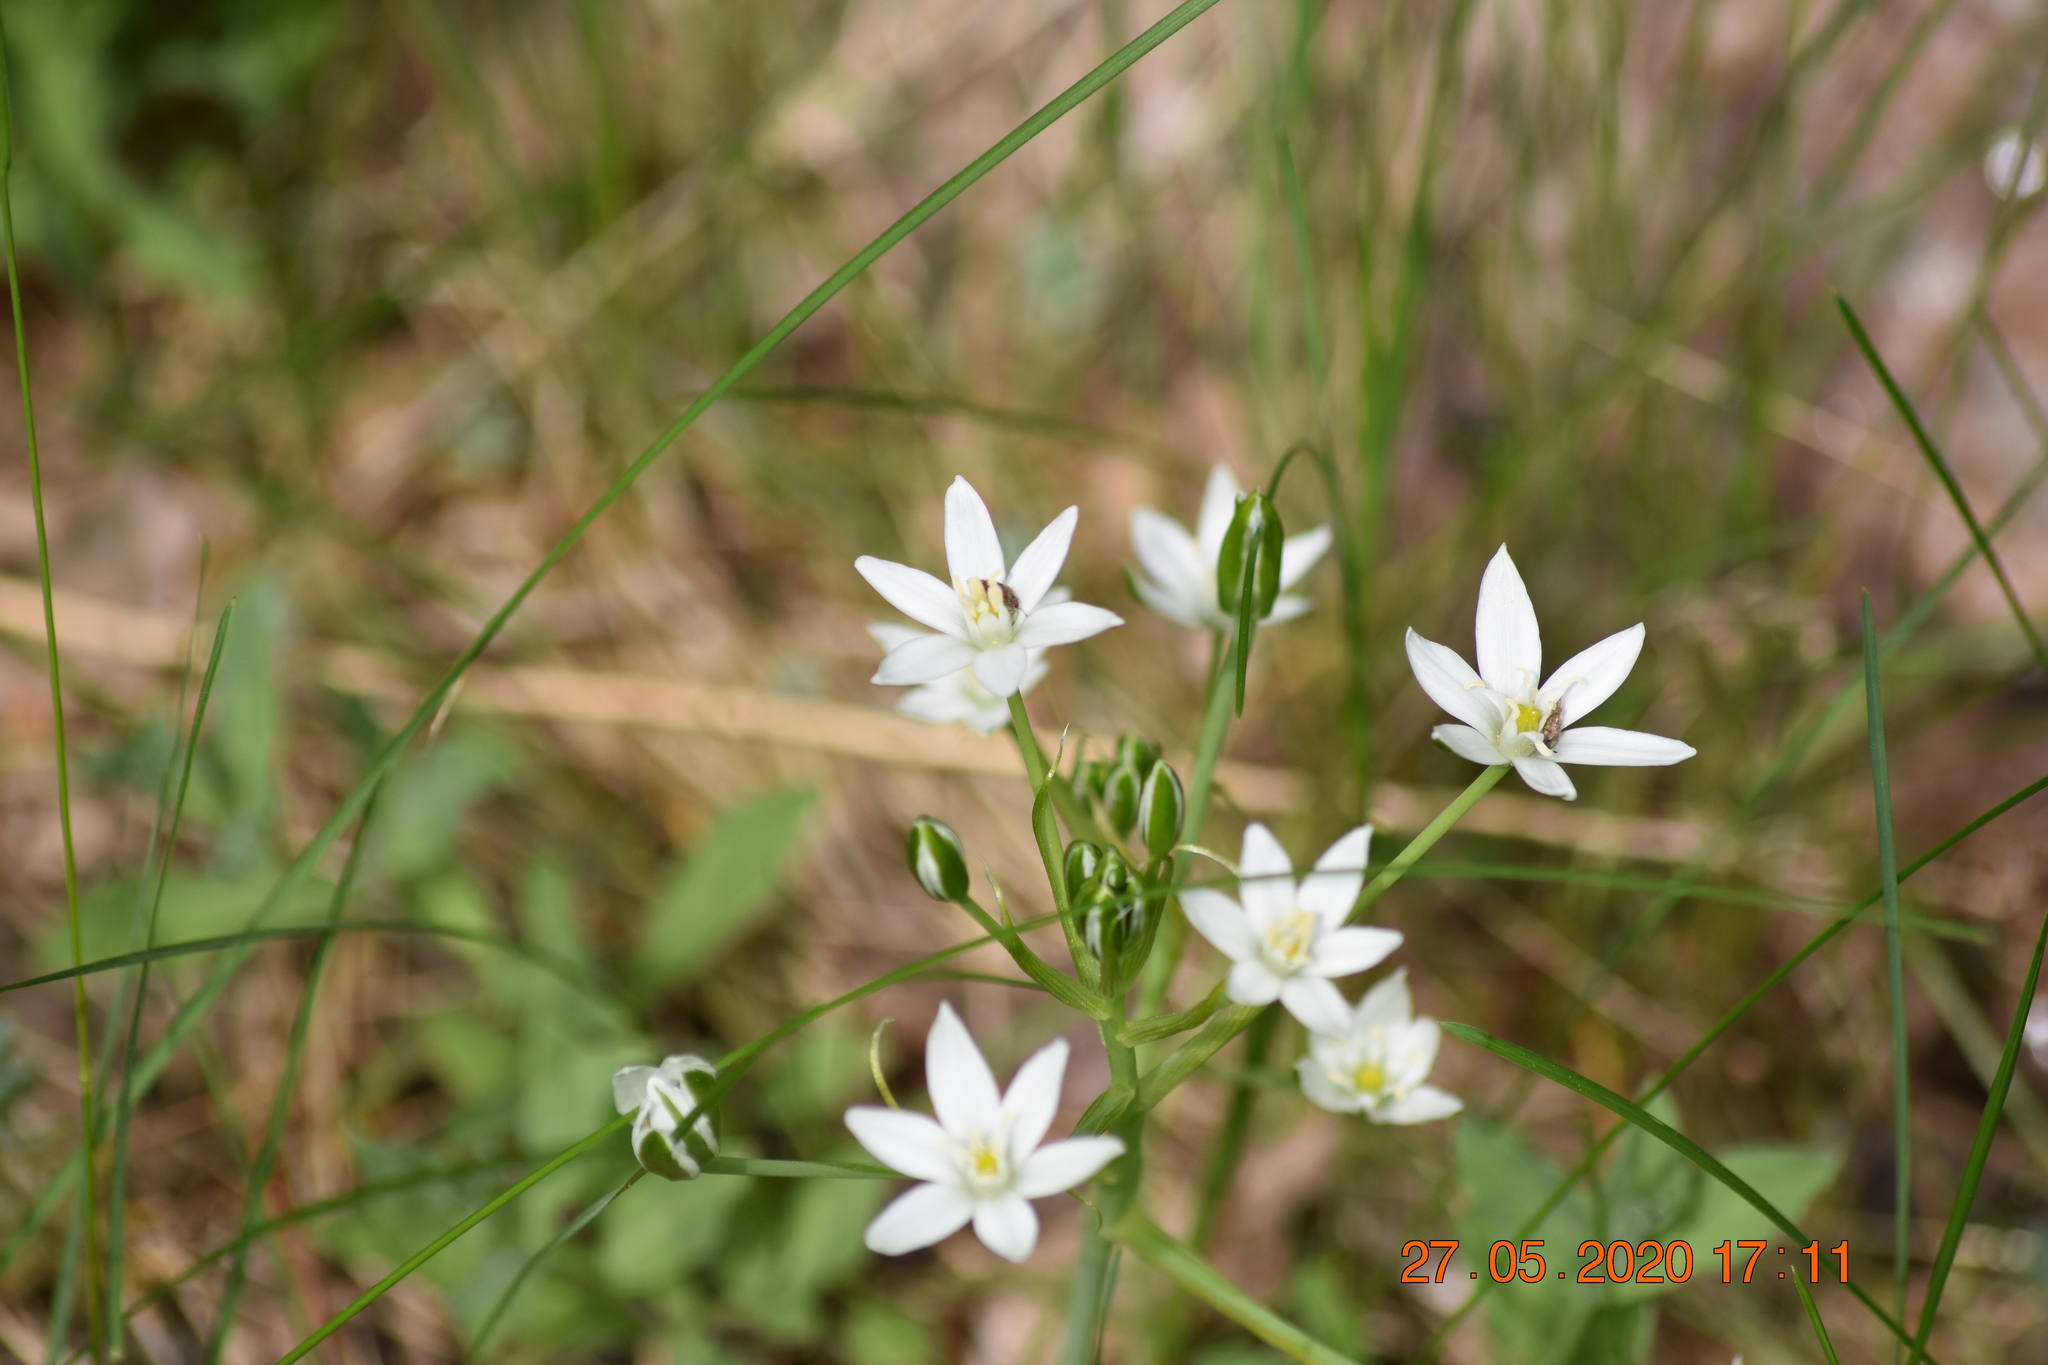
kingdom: Plantae
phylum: Tracheophyta
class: Liliopsida
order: Asparagales
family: Asparagaceae
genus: Ornithogalum
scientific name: Ornithogalum umbellatum
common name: Garden star-of-bethlehem
